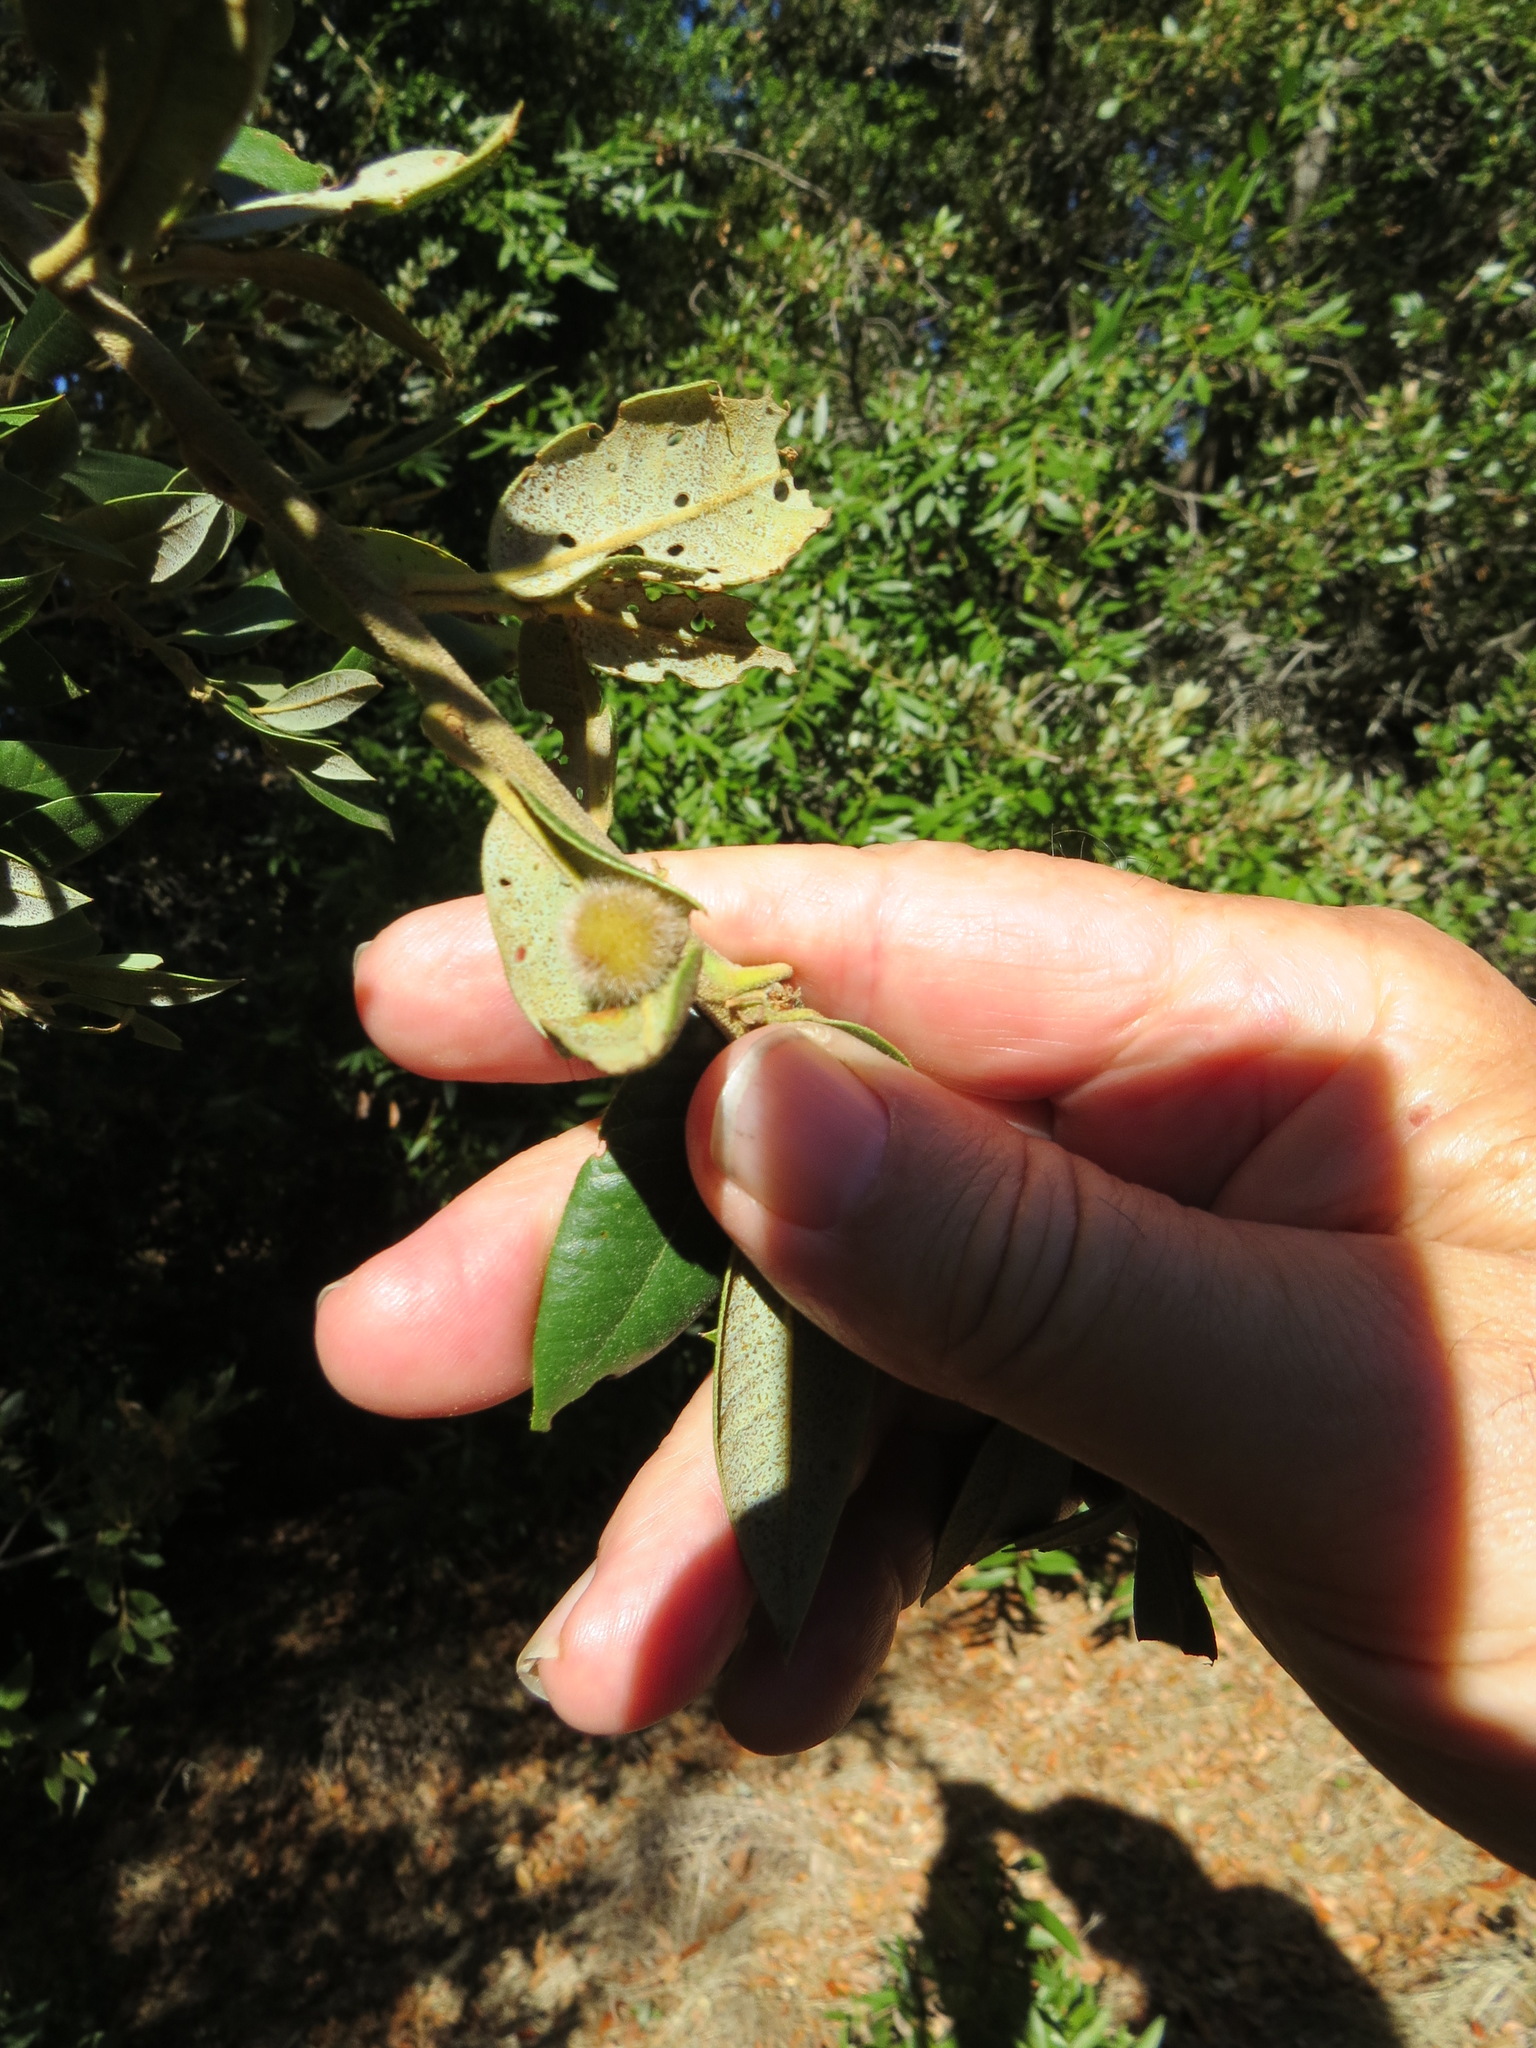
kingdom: Animalia
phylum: Arthropoda
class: Insecta
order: Hymenoptera
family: Cynipidae
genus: Disholandricus
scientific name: Disholandricus
